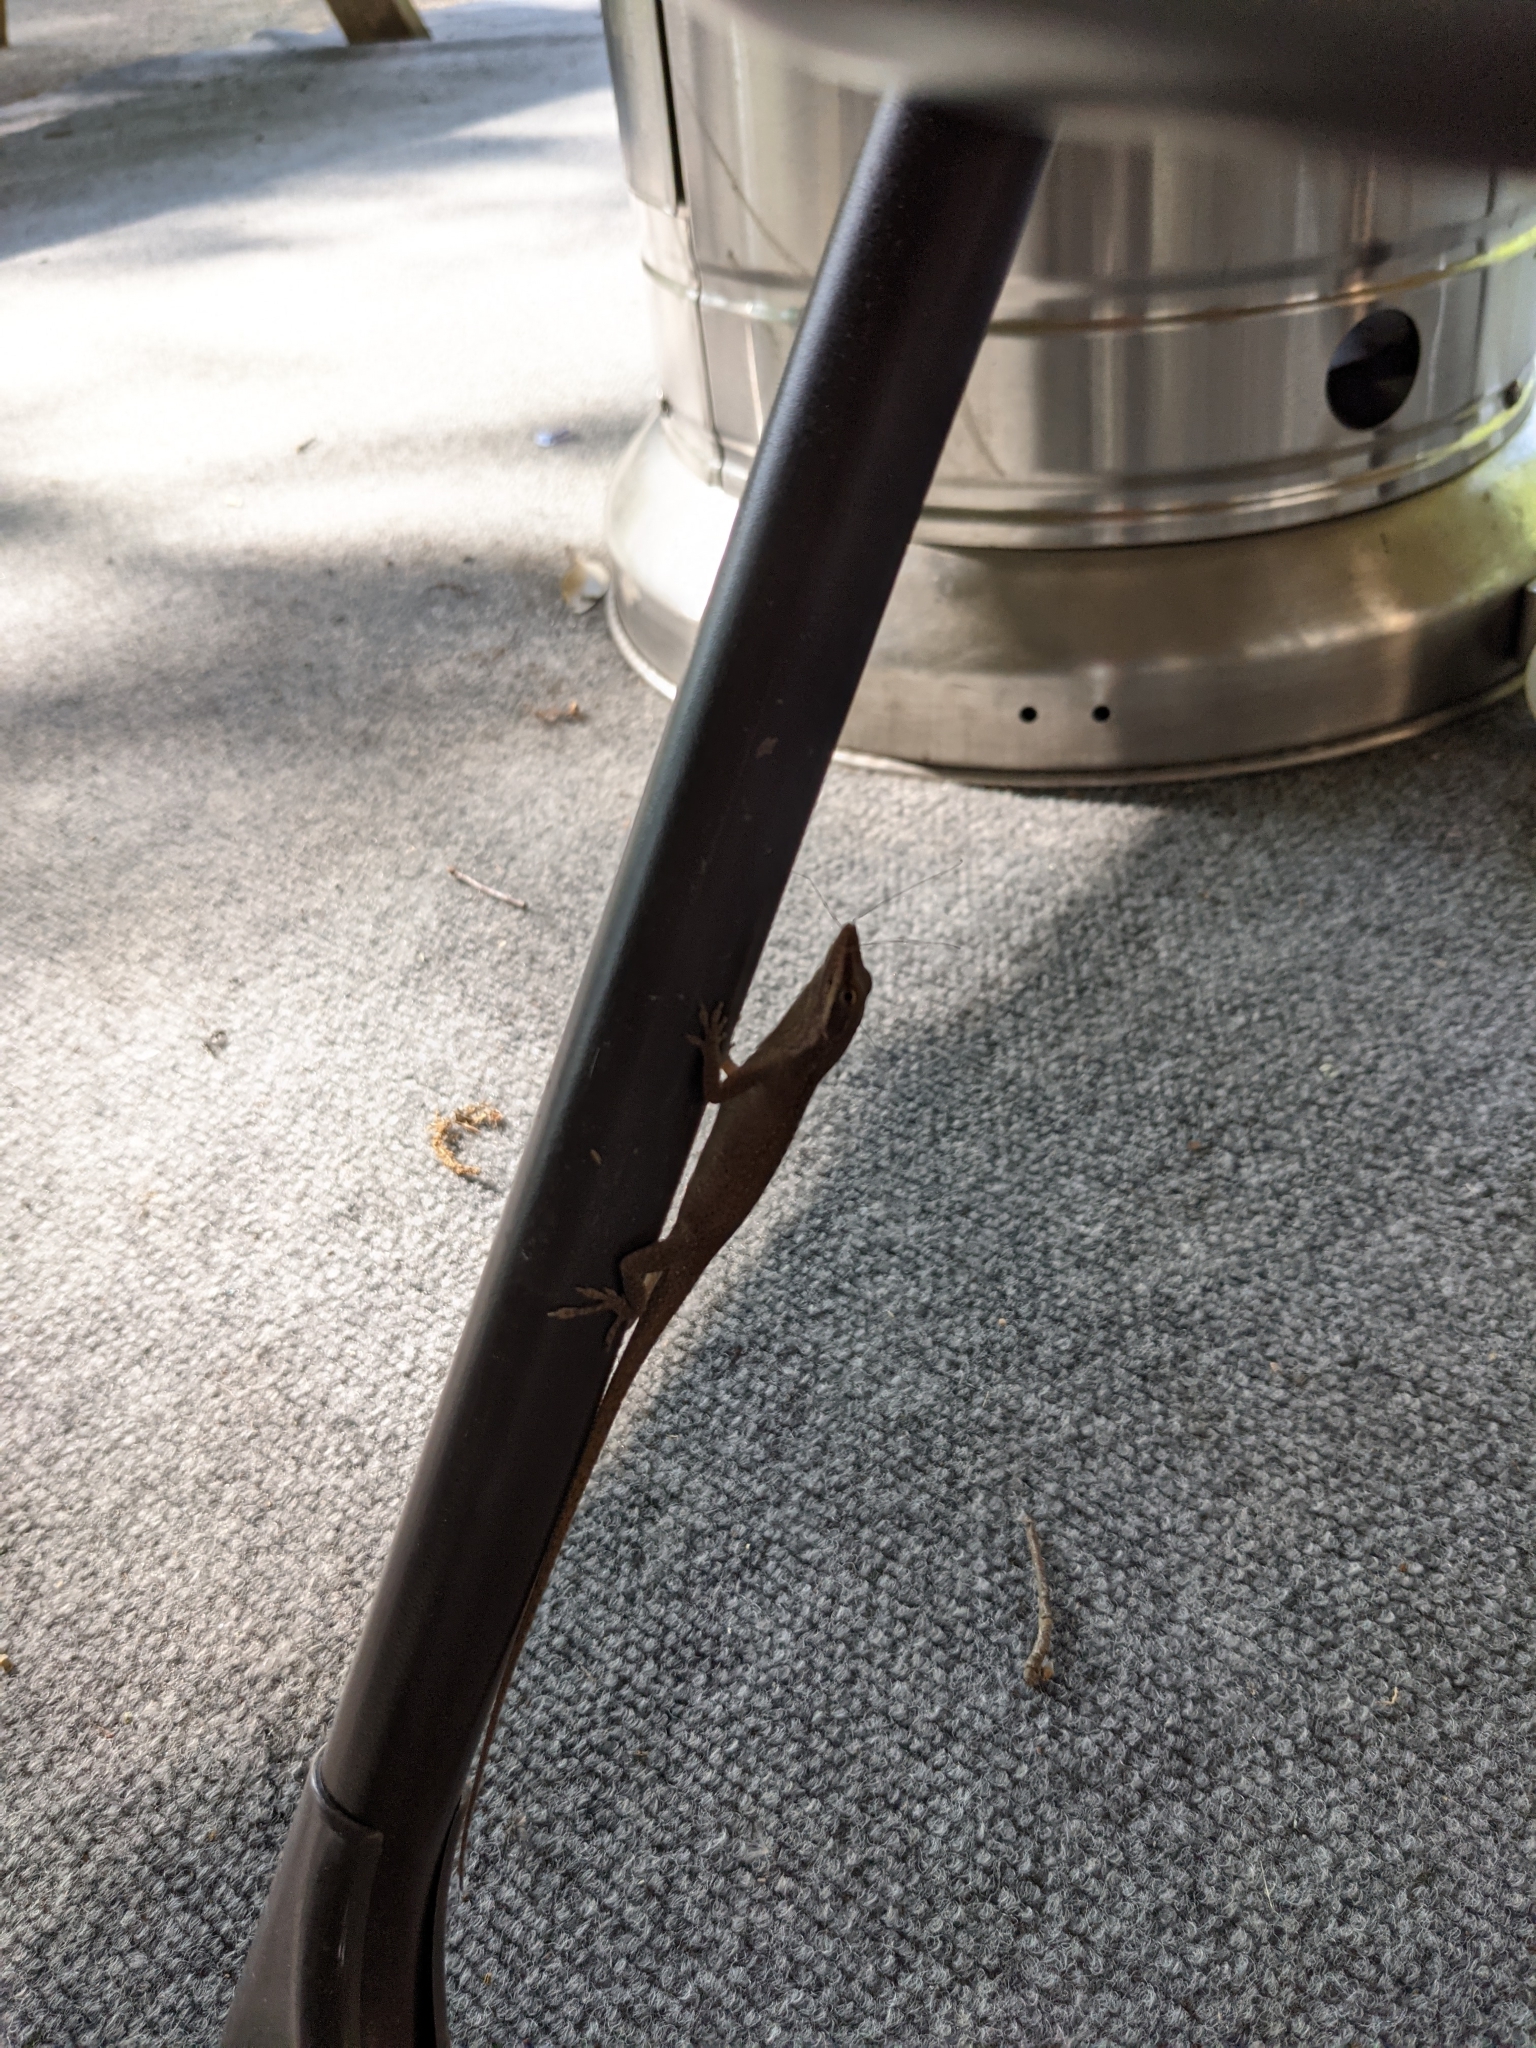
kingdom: Animalia
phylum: Chordata
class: Squamata
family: Dactyloidae
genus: Anolis
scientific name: Anolis carolinensis
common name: Green anole
